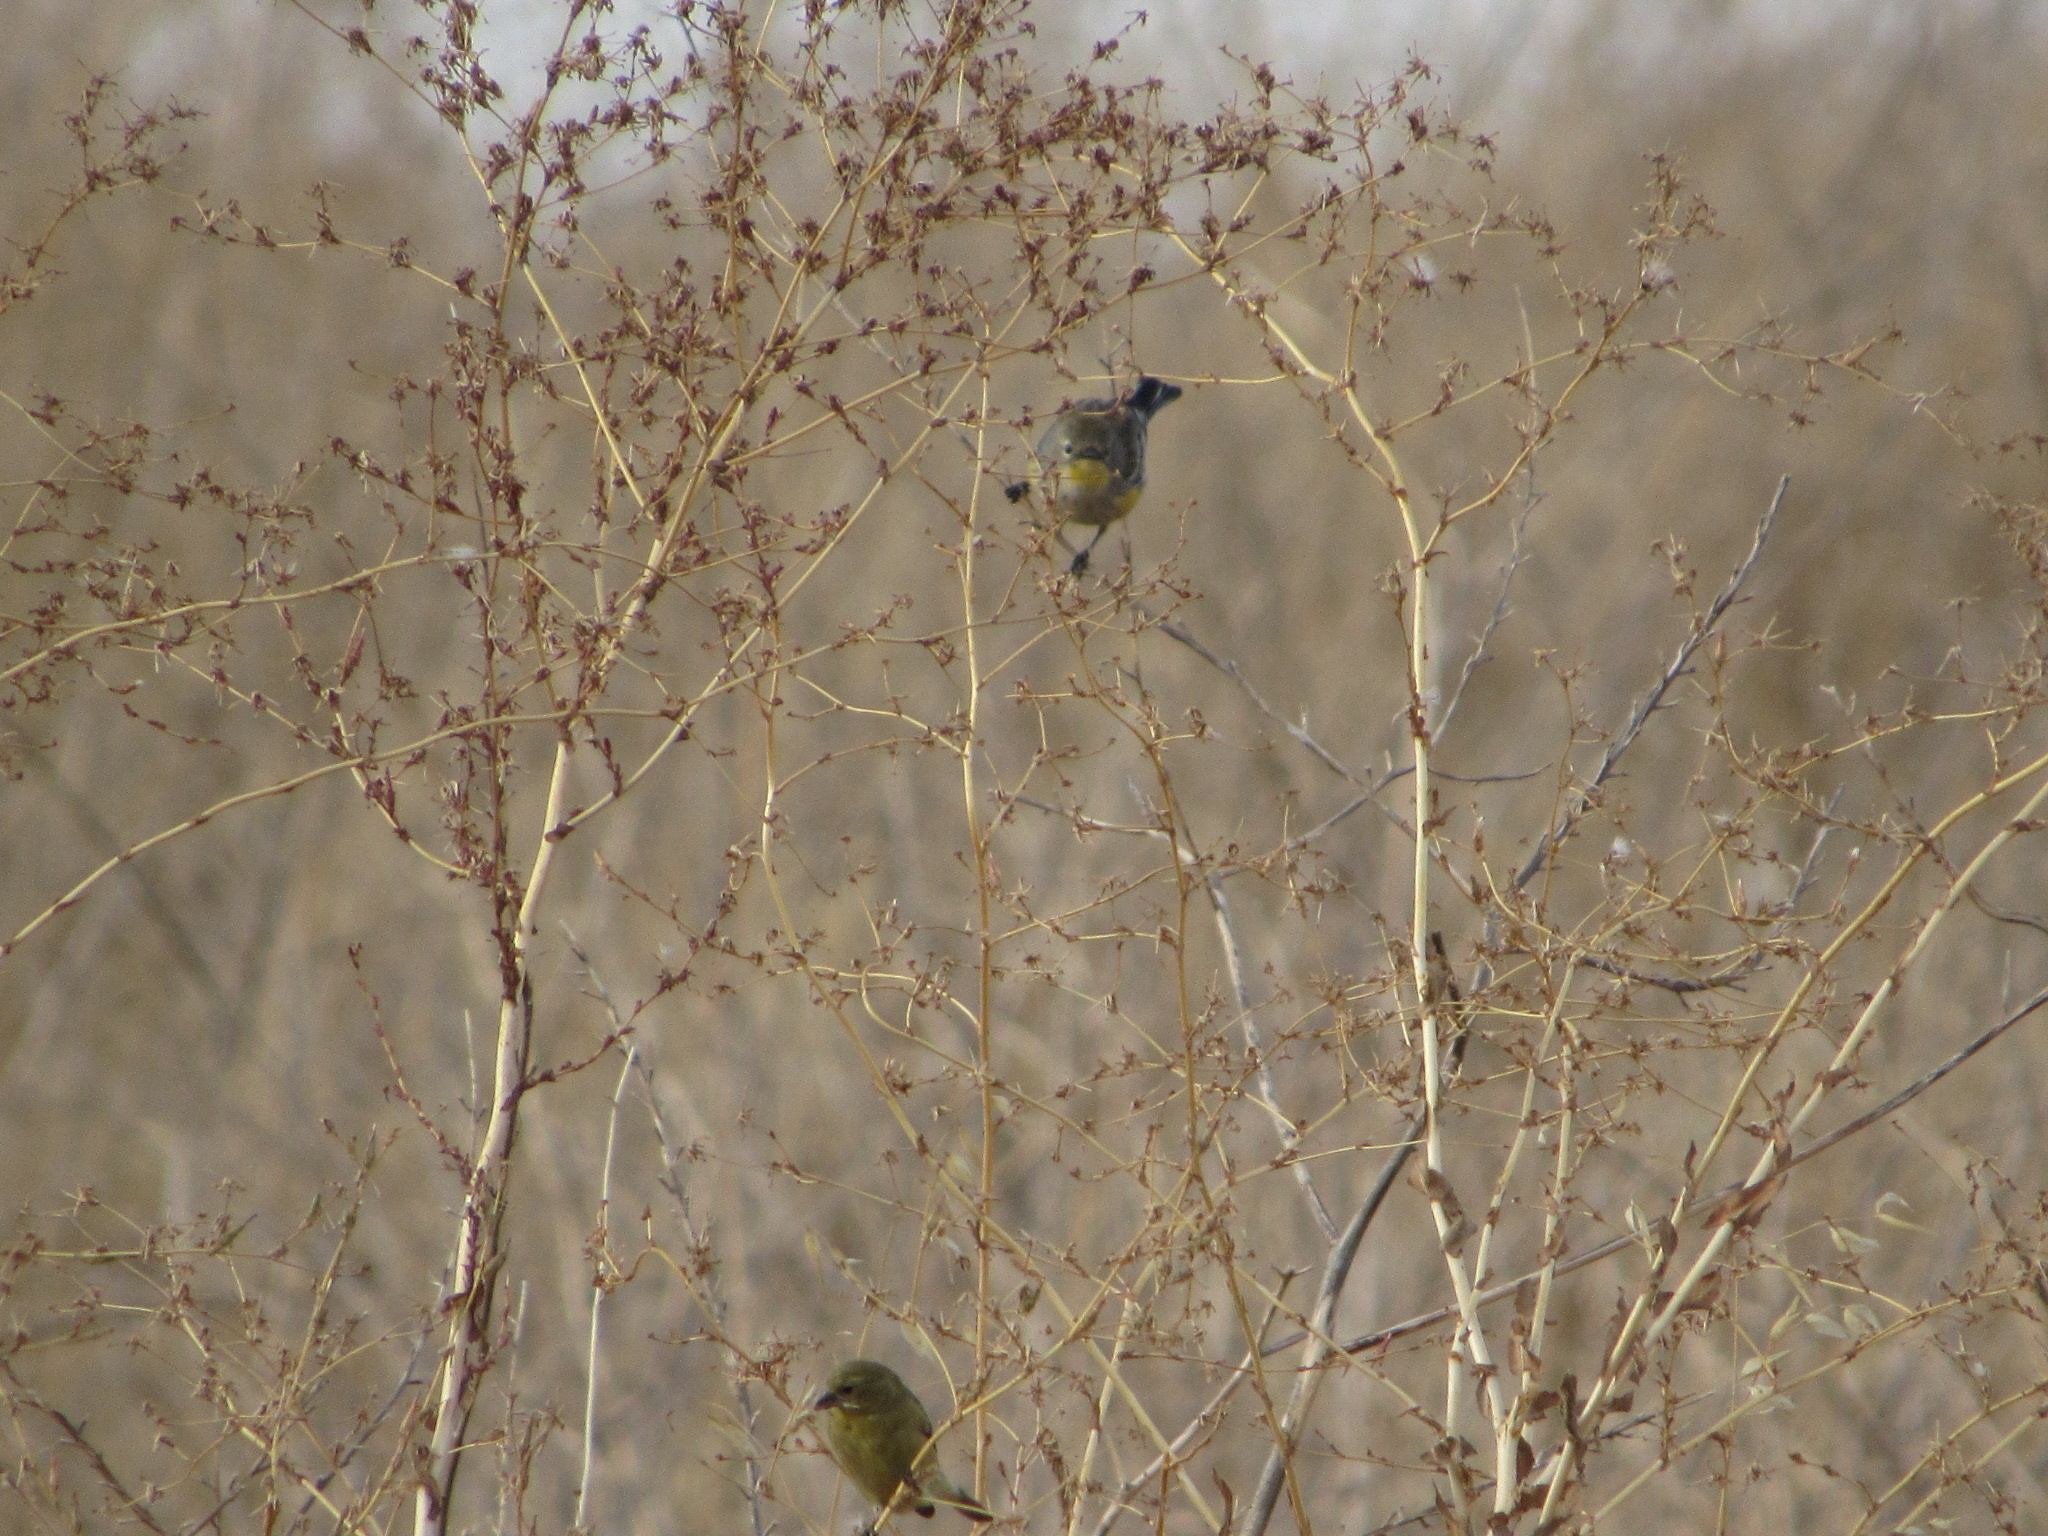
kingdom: Animalia
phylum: Chordata
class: Aves
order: Passeriformes
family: Fringillidae
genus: Spinus
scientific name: Spinus tristis
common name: American goldfinch
